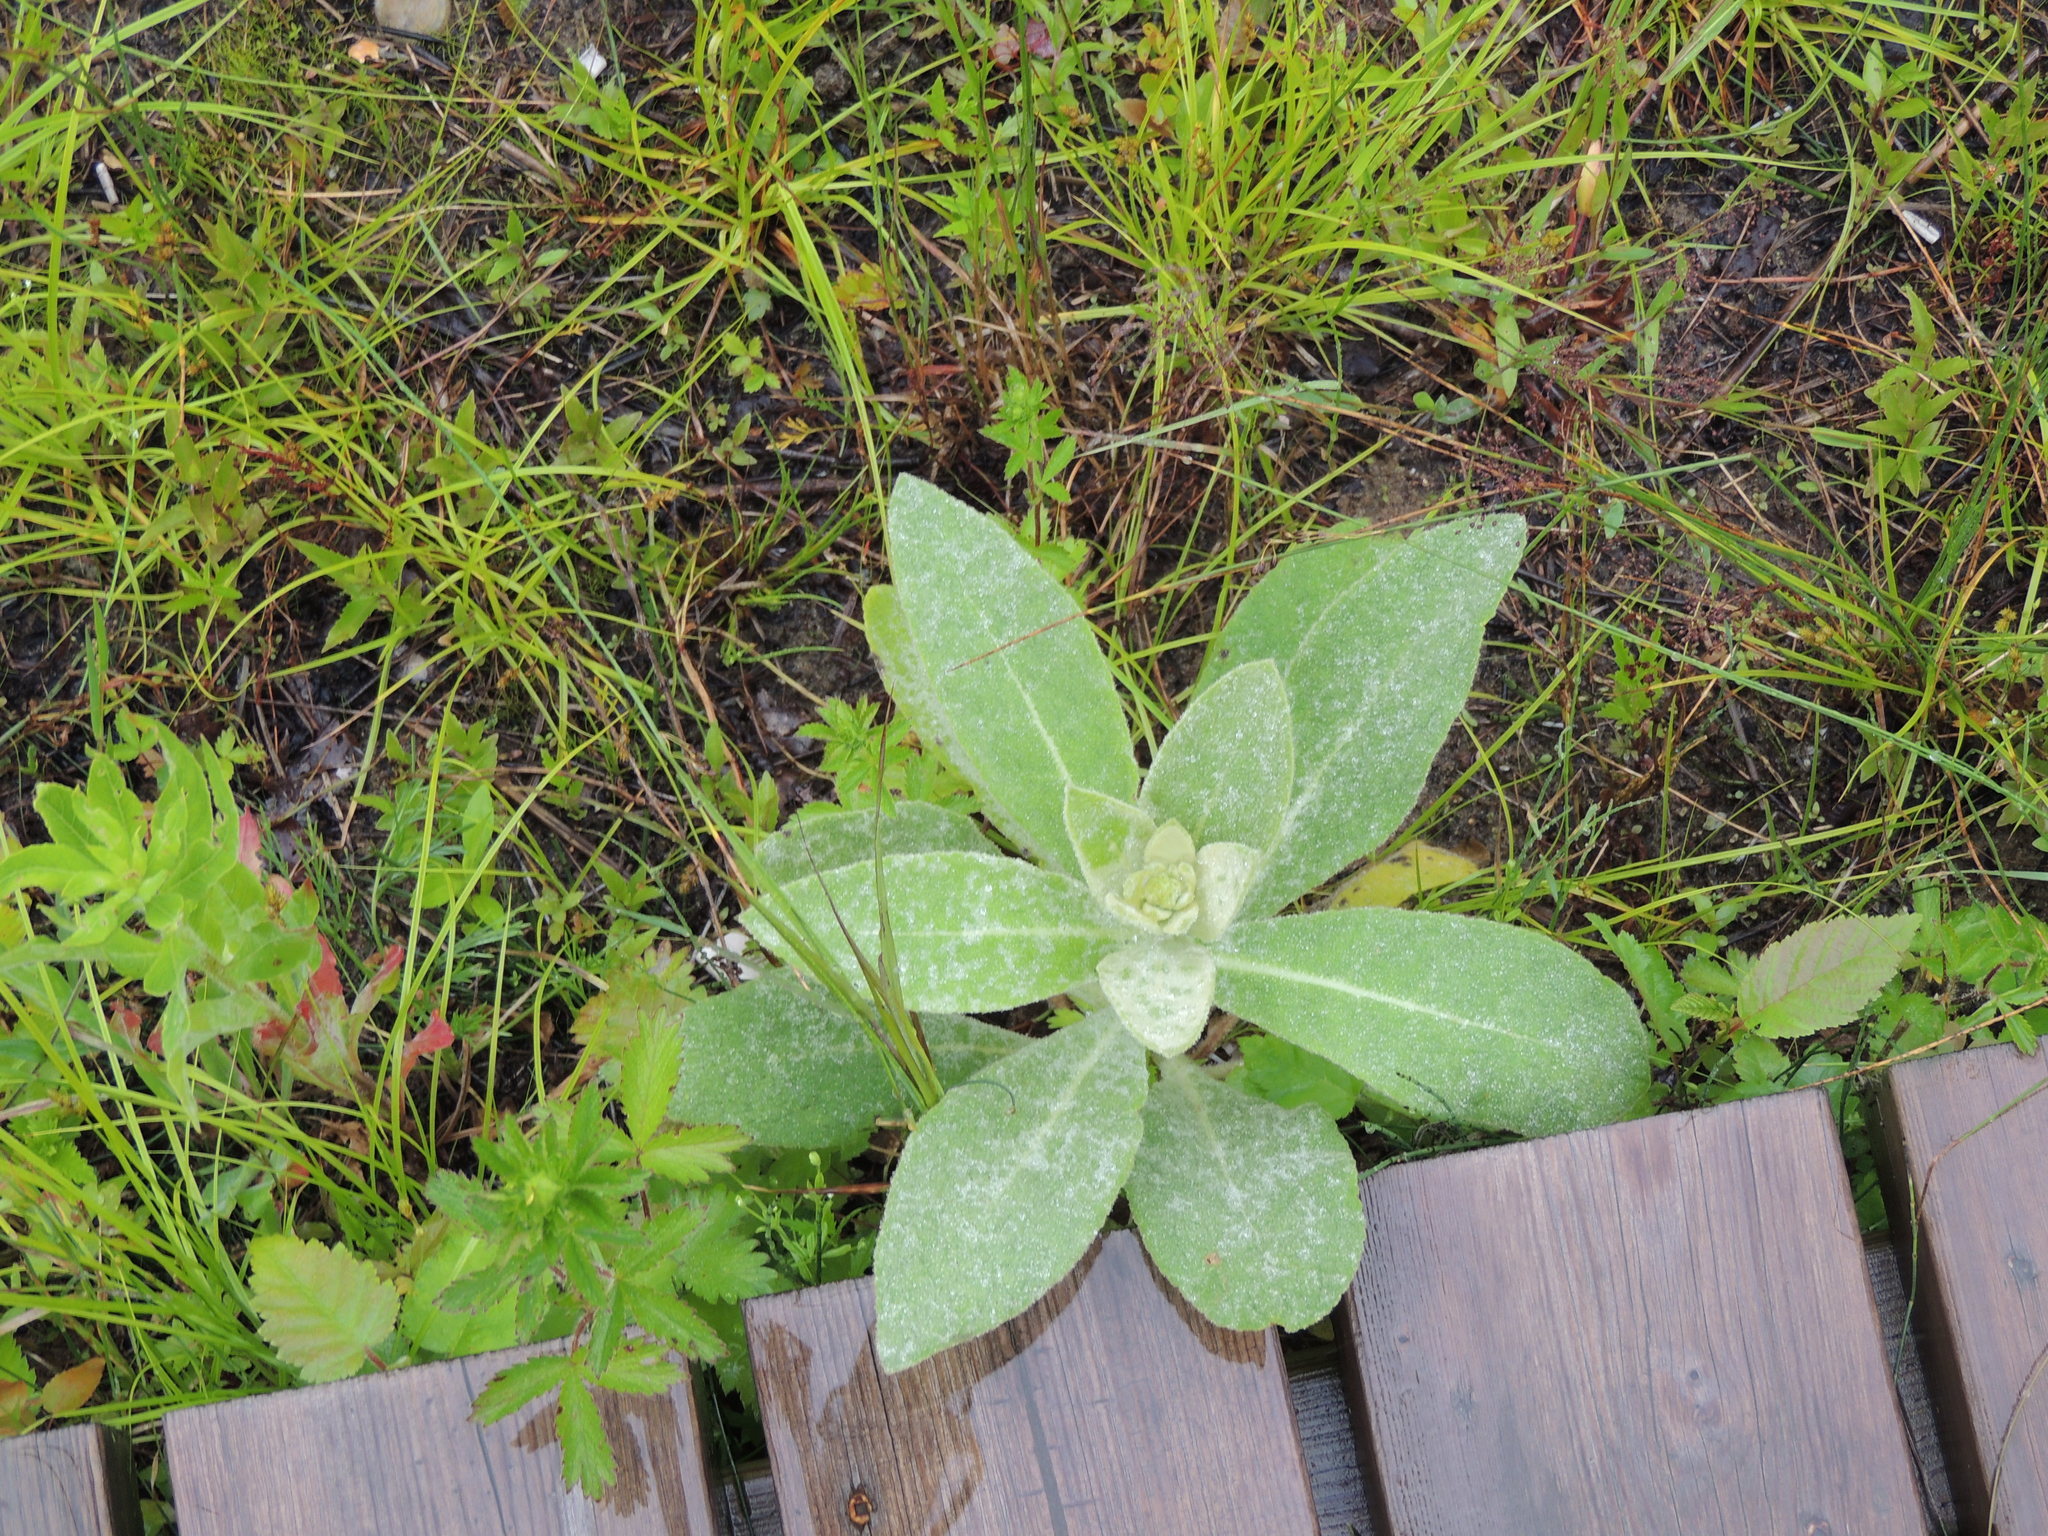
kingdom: Plantae
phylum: Tracheophyta
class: Magnoliopsida
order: Lamiales
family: Scrophulariaceae
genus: Verbascum
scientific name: Verbascum thapsus
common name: Common mullein
